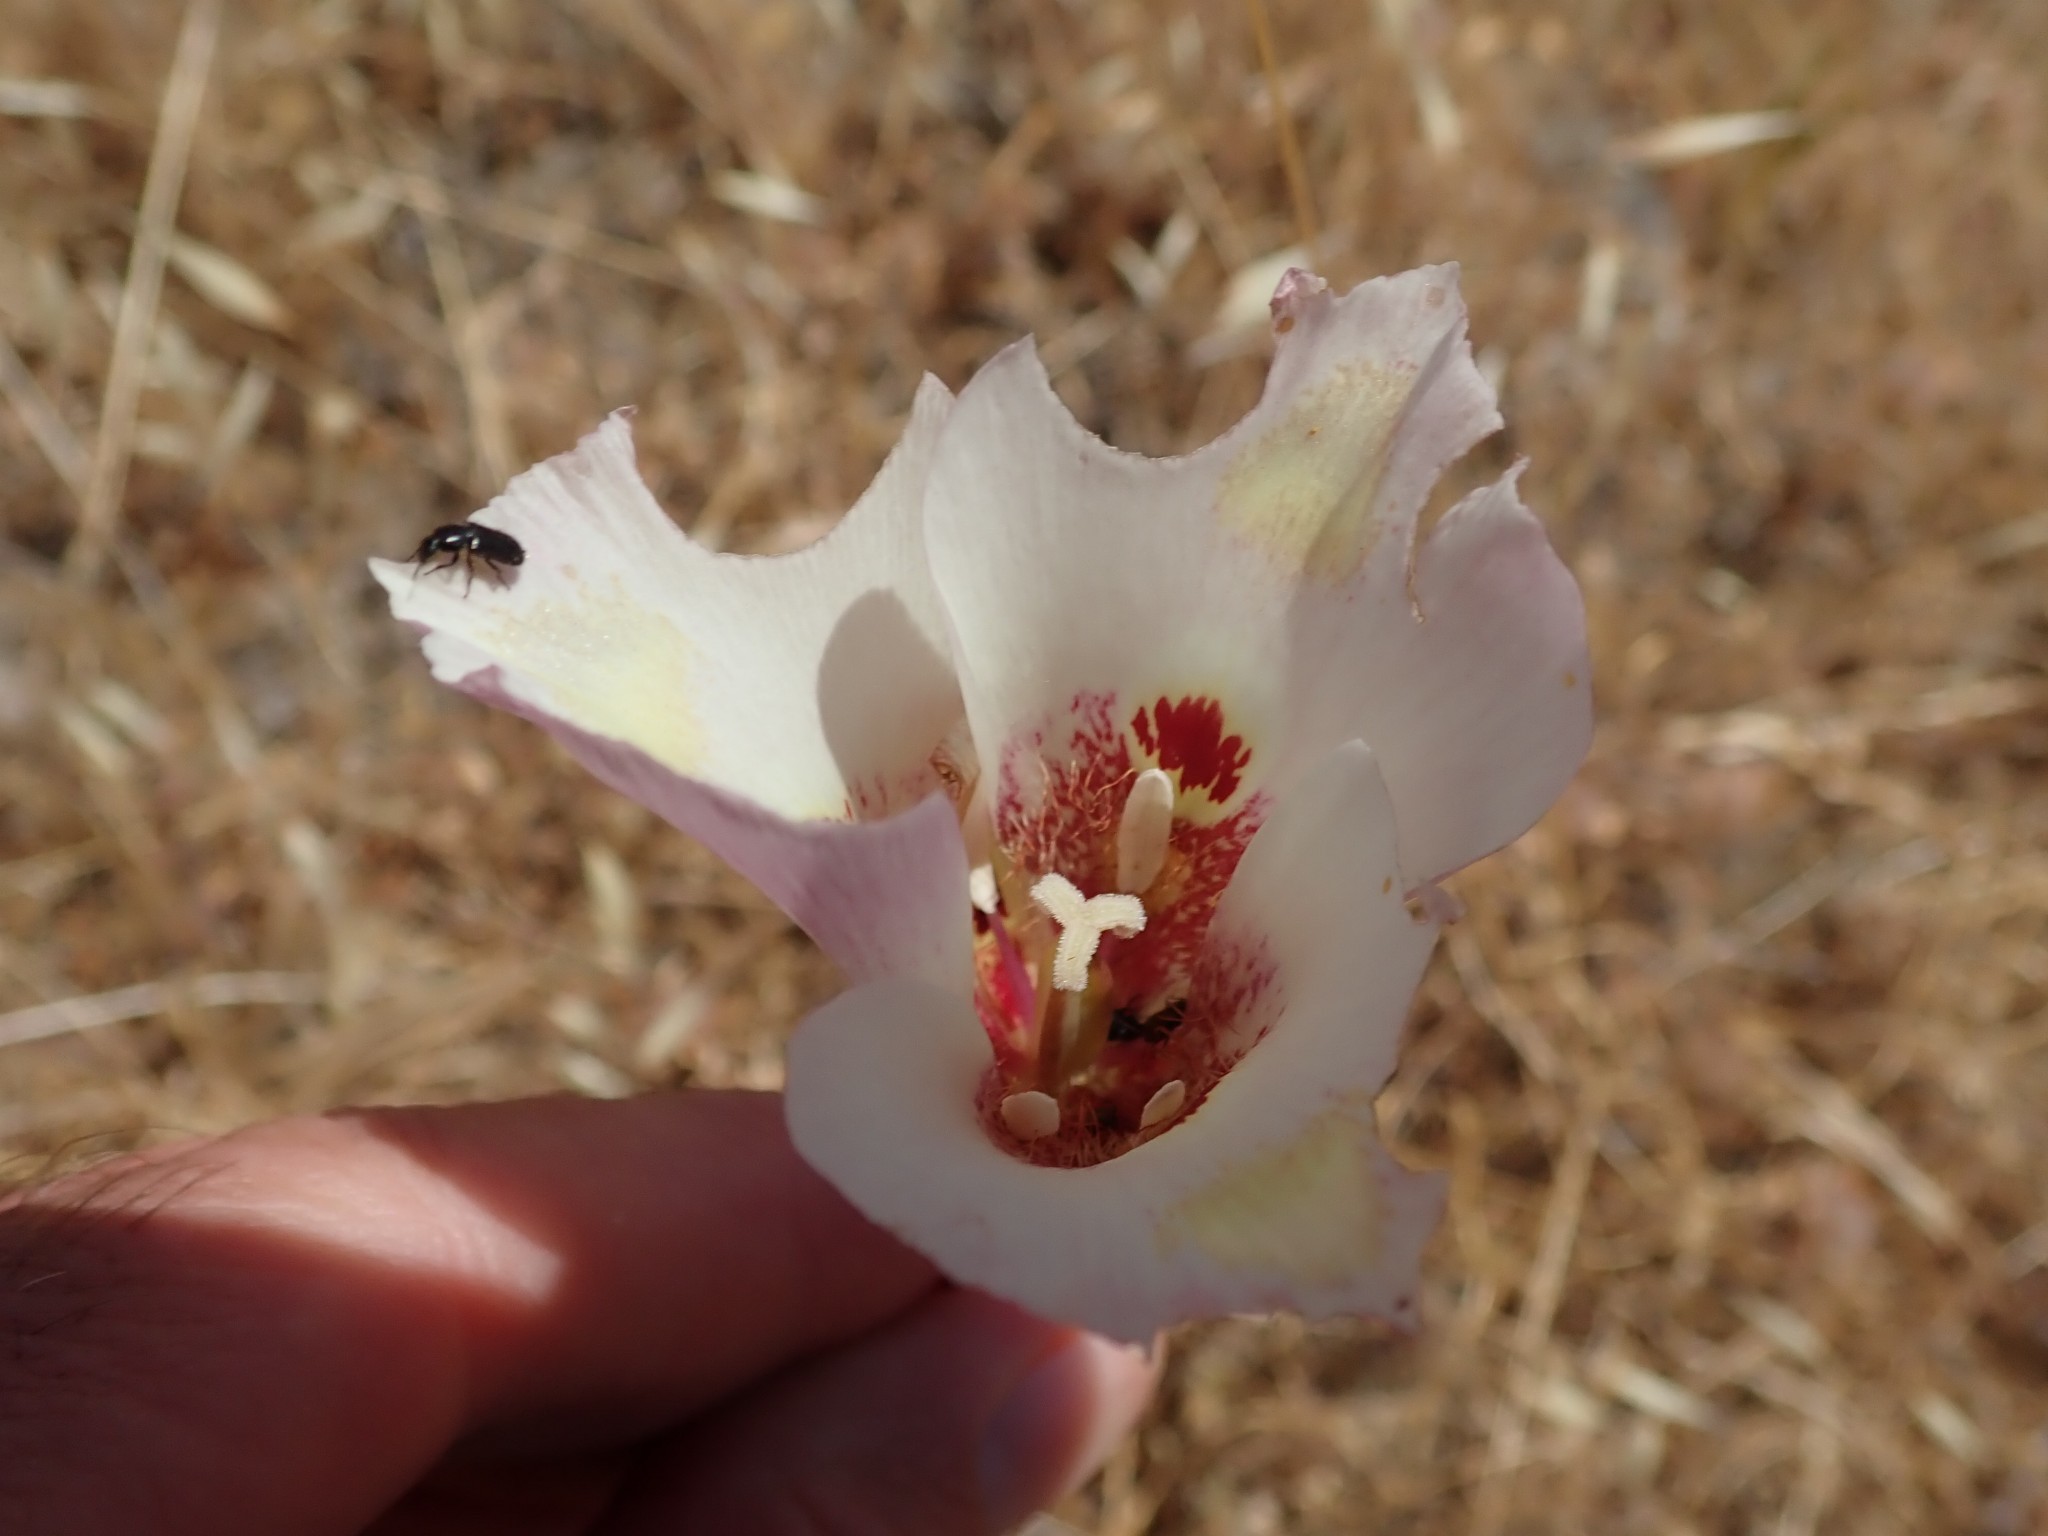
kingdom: Plantae
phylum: Tracheophyta
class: Liliopsida
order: Liliales
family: Liliaceae
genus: Calochortus
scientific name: Calochortus venustus
